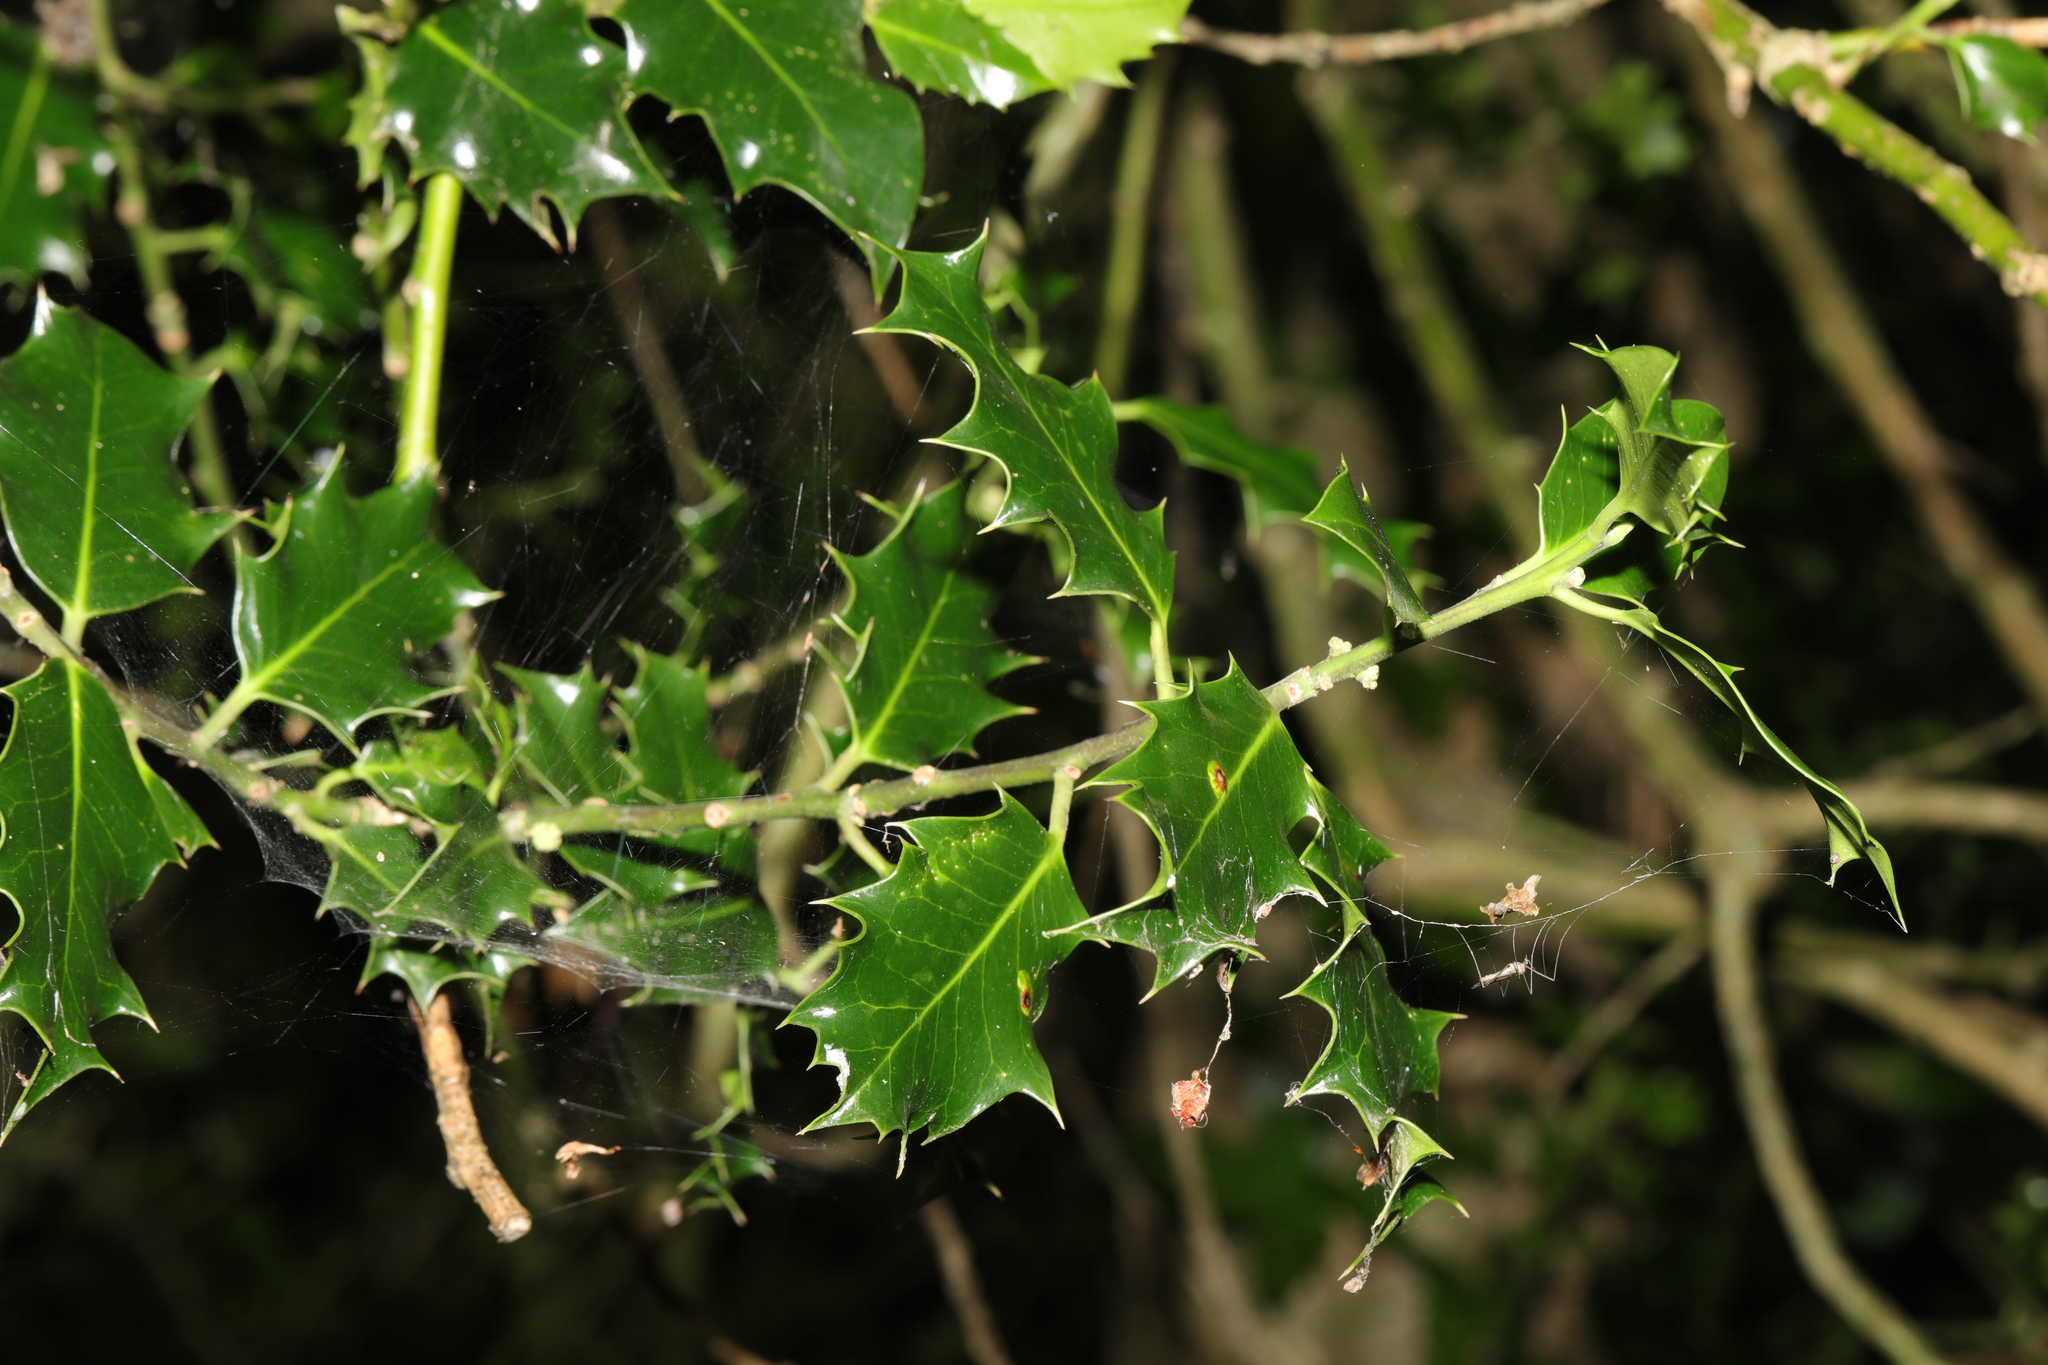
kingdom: Plantae
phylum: Tracheophyta
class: Magnoliopsida
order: Aquifoliales
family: Aquifoliaceae
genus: Ilex
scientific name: Ilex aquifolium
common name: English holly
